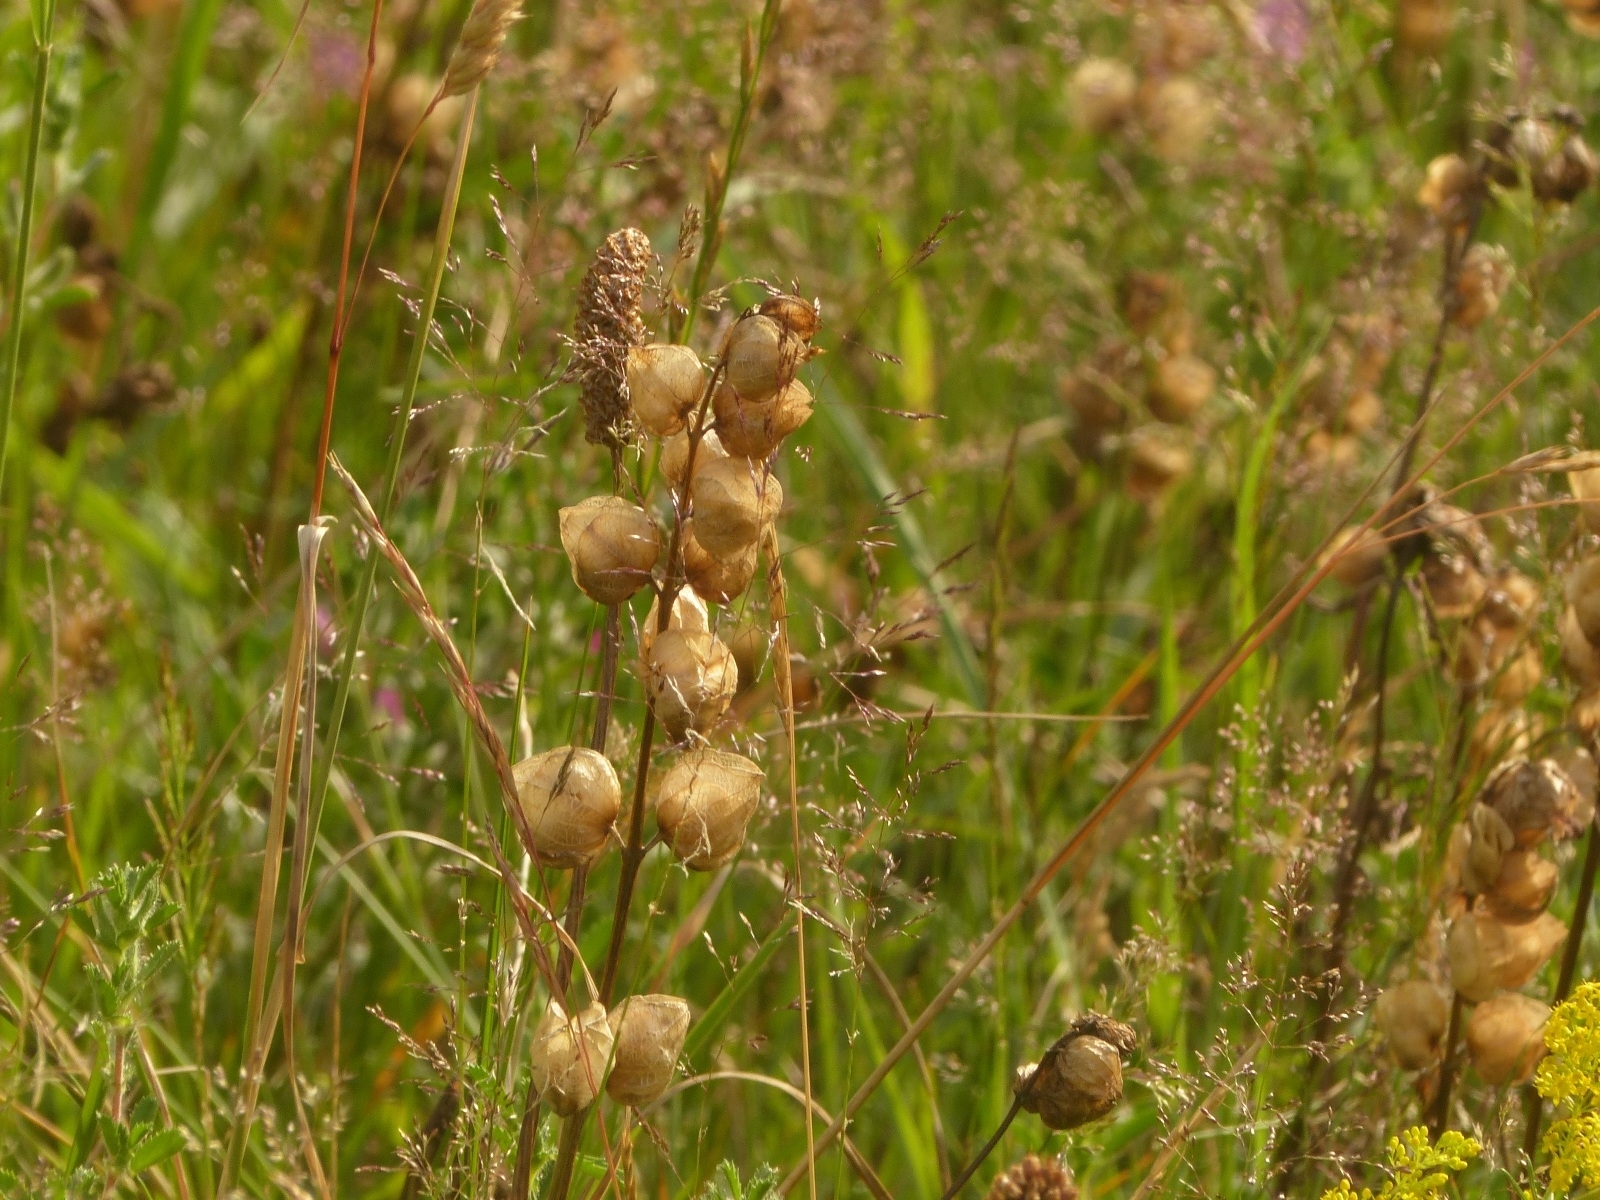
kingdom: Plantae
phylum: Tracheophyta
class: Magnoliopsida
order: Lamiales
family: Orobanchaceae
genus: Rhinanthus
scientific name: Rhinanthus minor
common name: Yellow-rattle
